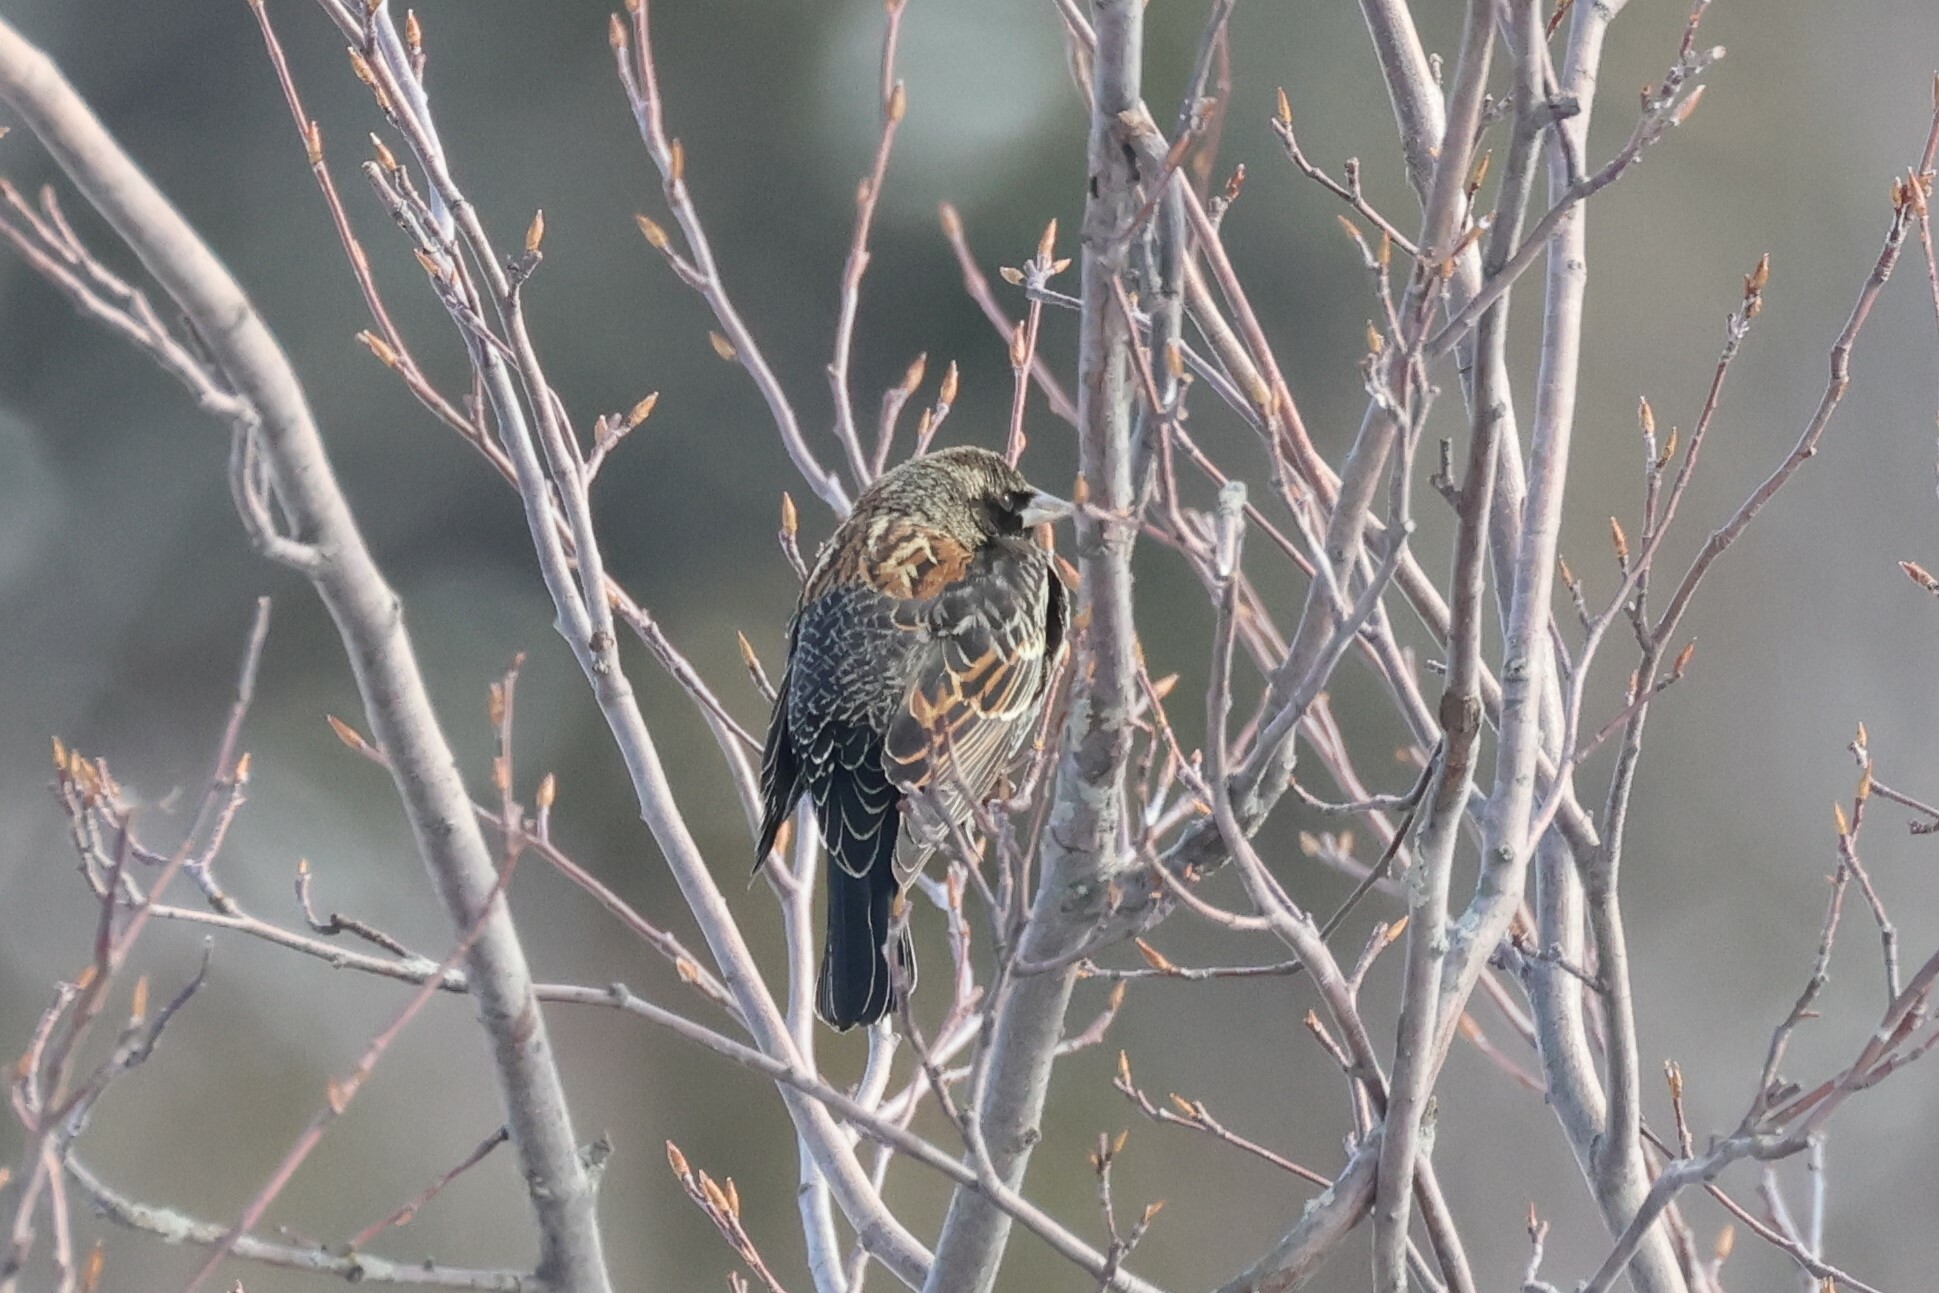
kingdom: Animalia
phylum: Chordata
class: Aves
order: Passeriformes
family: Icteridae
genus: Agelaius
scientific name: Agelaius phoeniceus
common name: Red-winged blackbird
